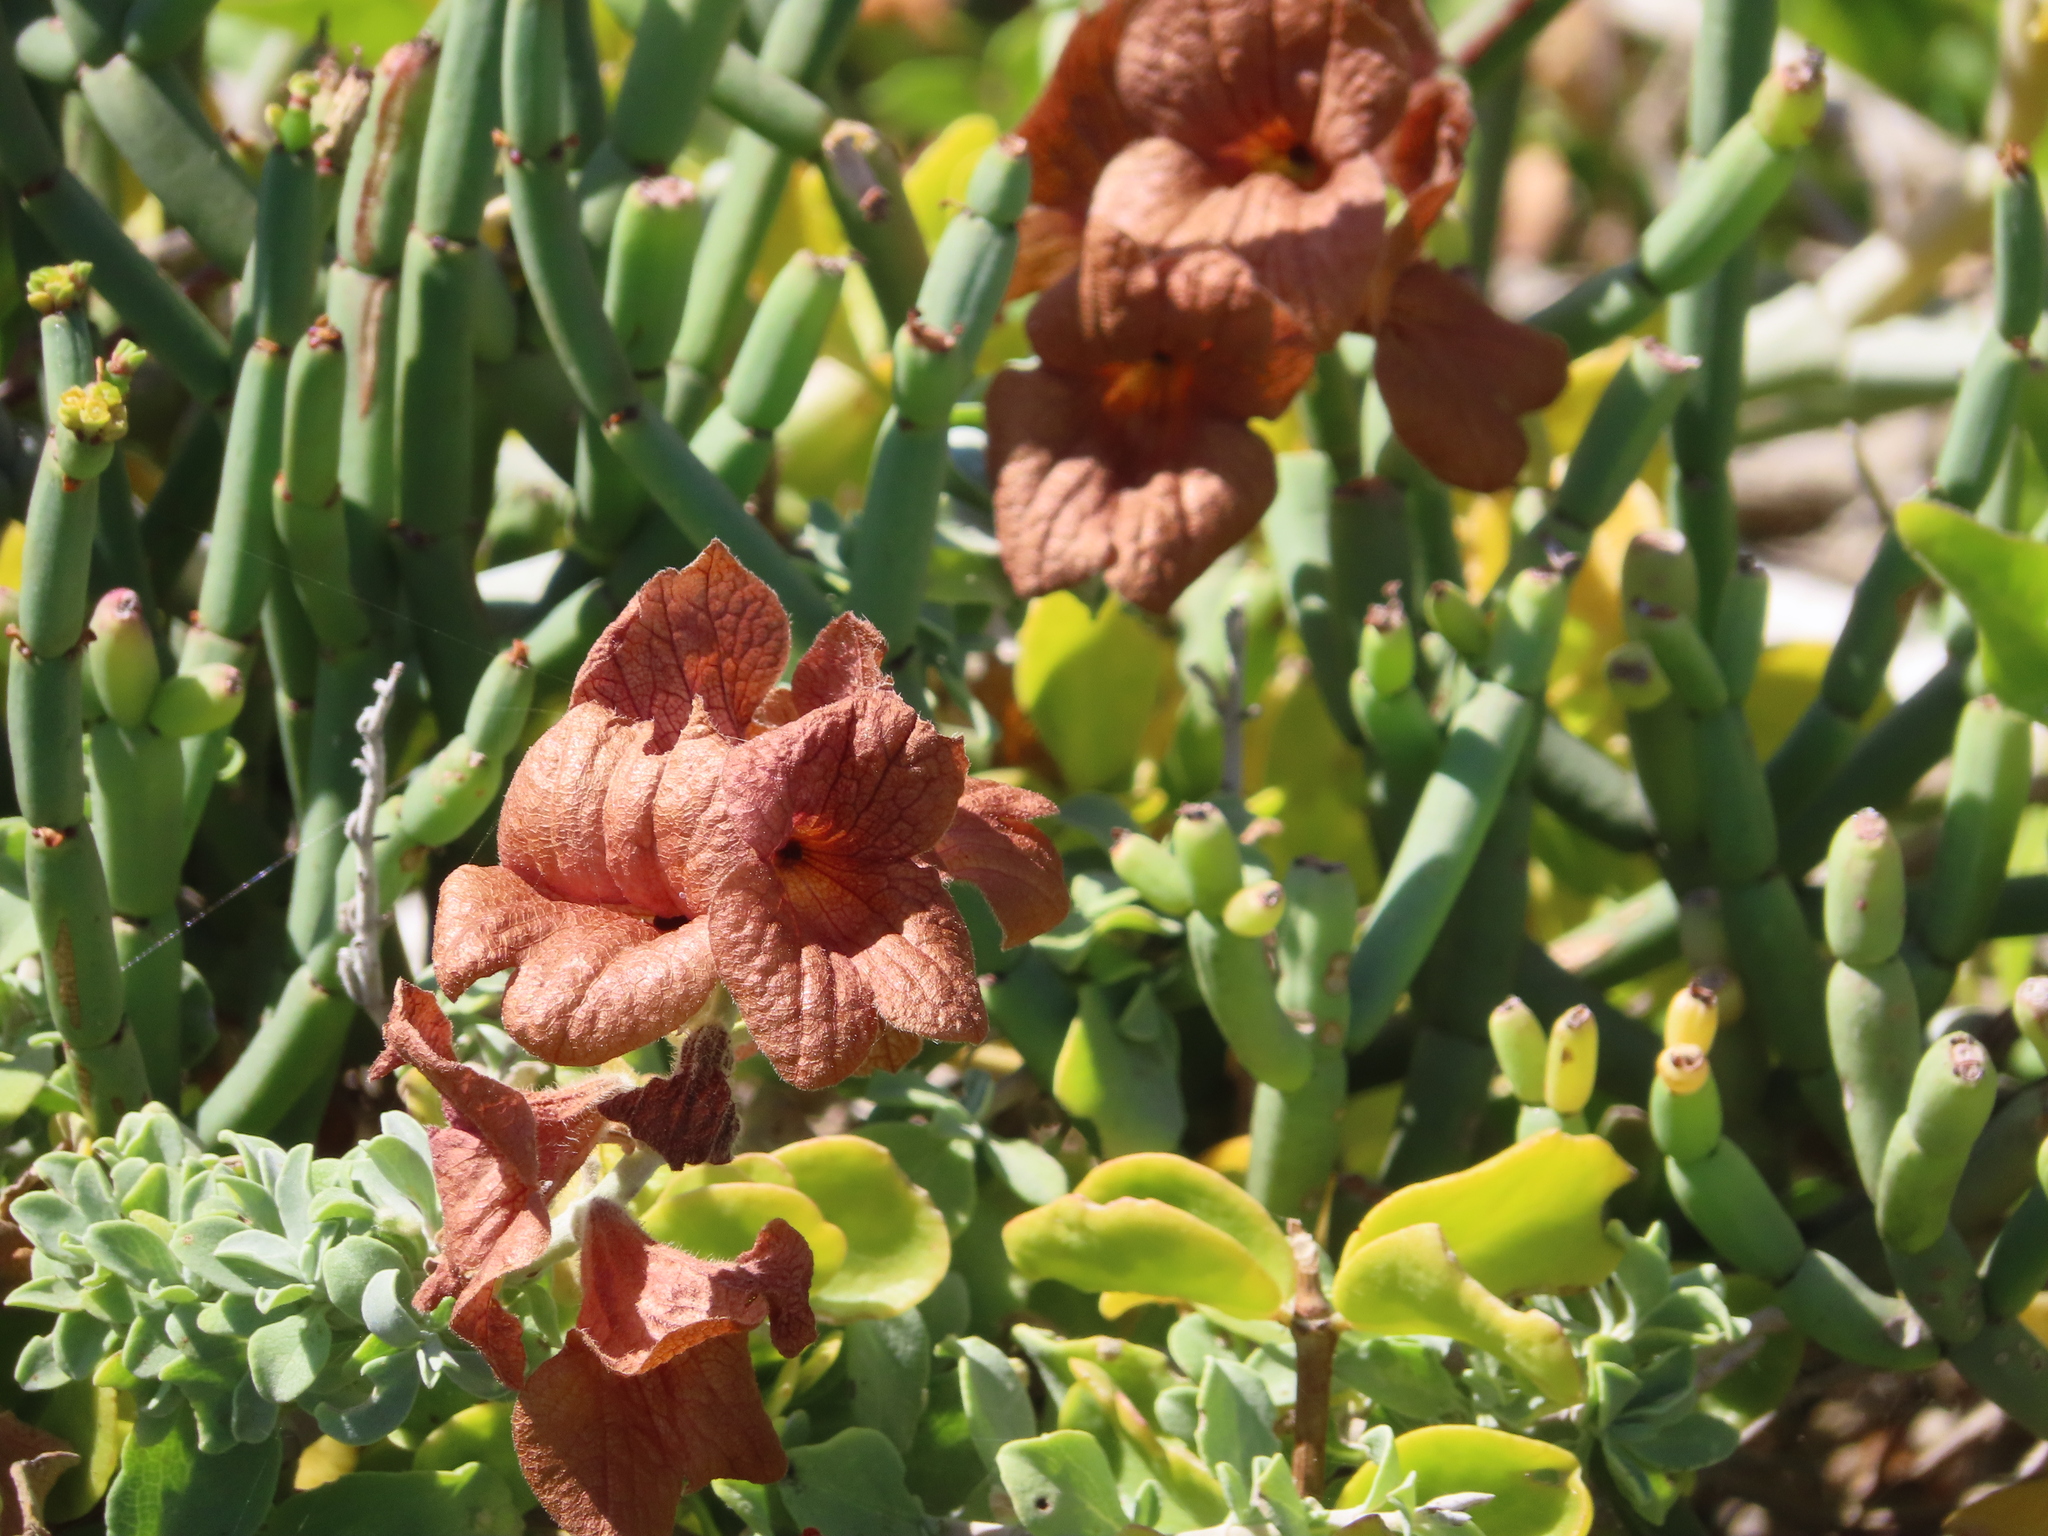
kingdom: Plantae
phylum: Tracheophyta
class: Magnoliopsida
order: Lamiales
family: Lamiaceae
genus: Salvia
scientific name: Salvia aurea
